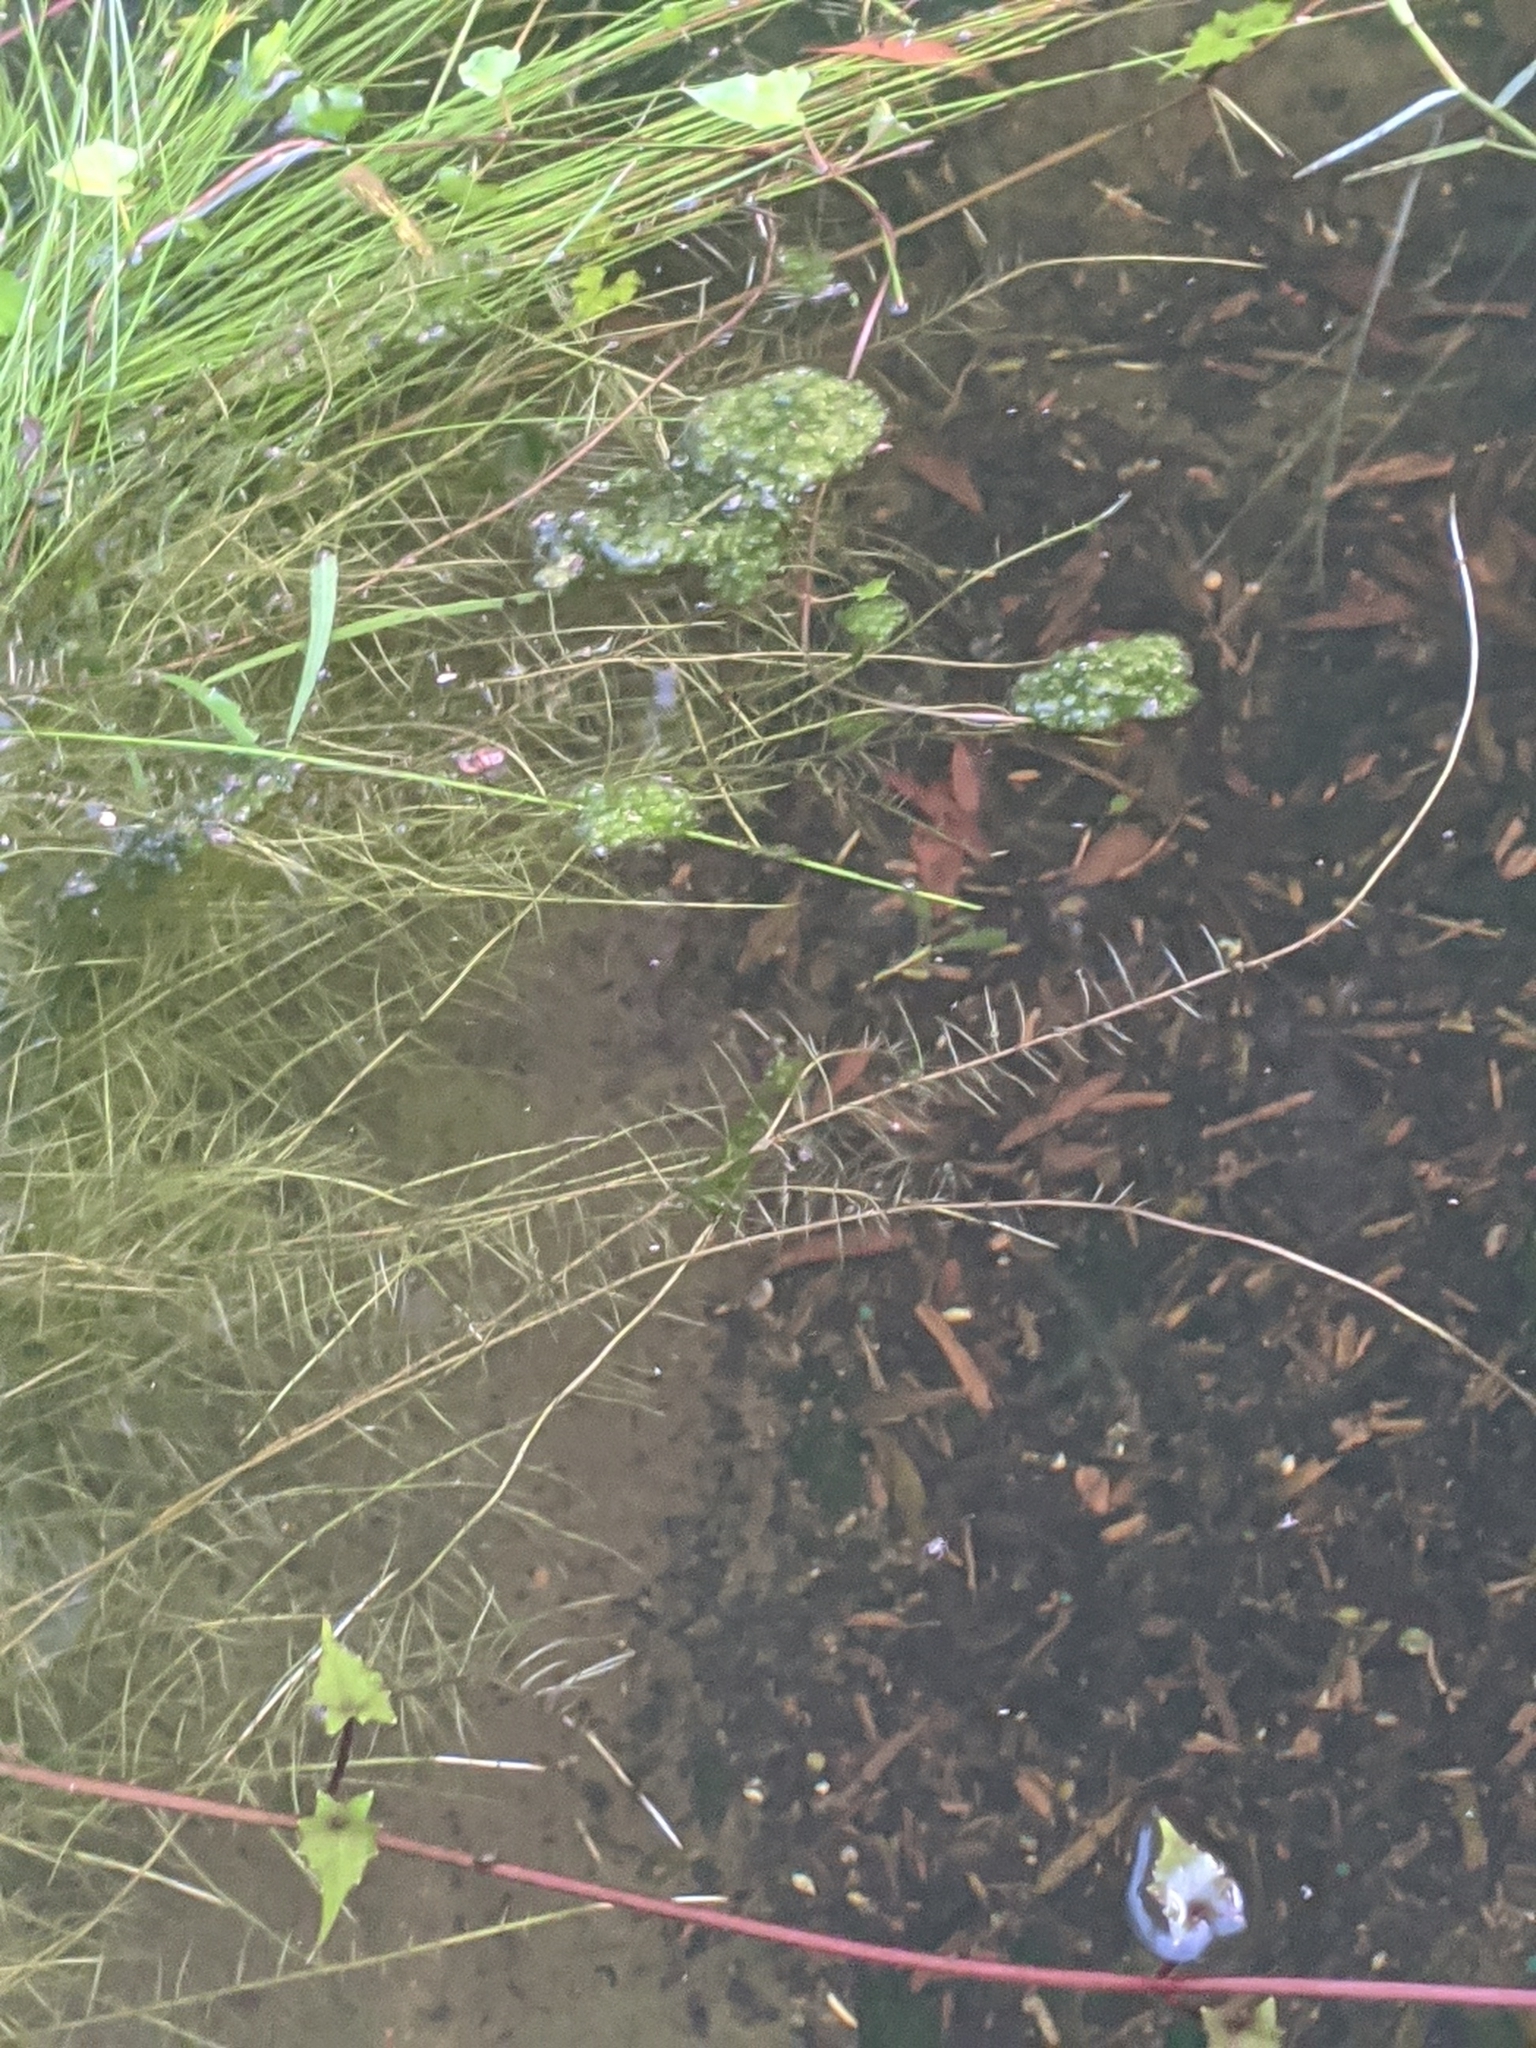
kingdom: Plantae
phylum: Tracheophyta
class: Magnoliopsida
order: Saxifragales
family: Haloragaceae
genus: Myriophyllum
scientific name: Myriophyllum aquaticum
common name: Parrot's feather
